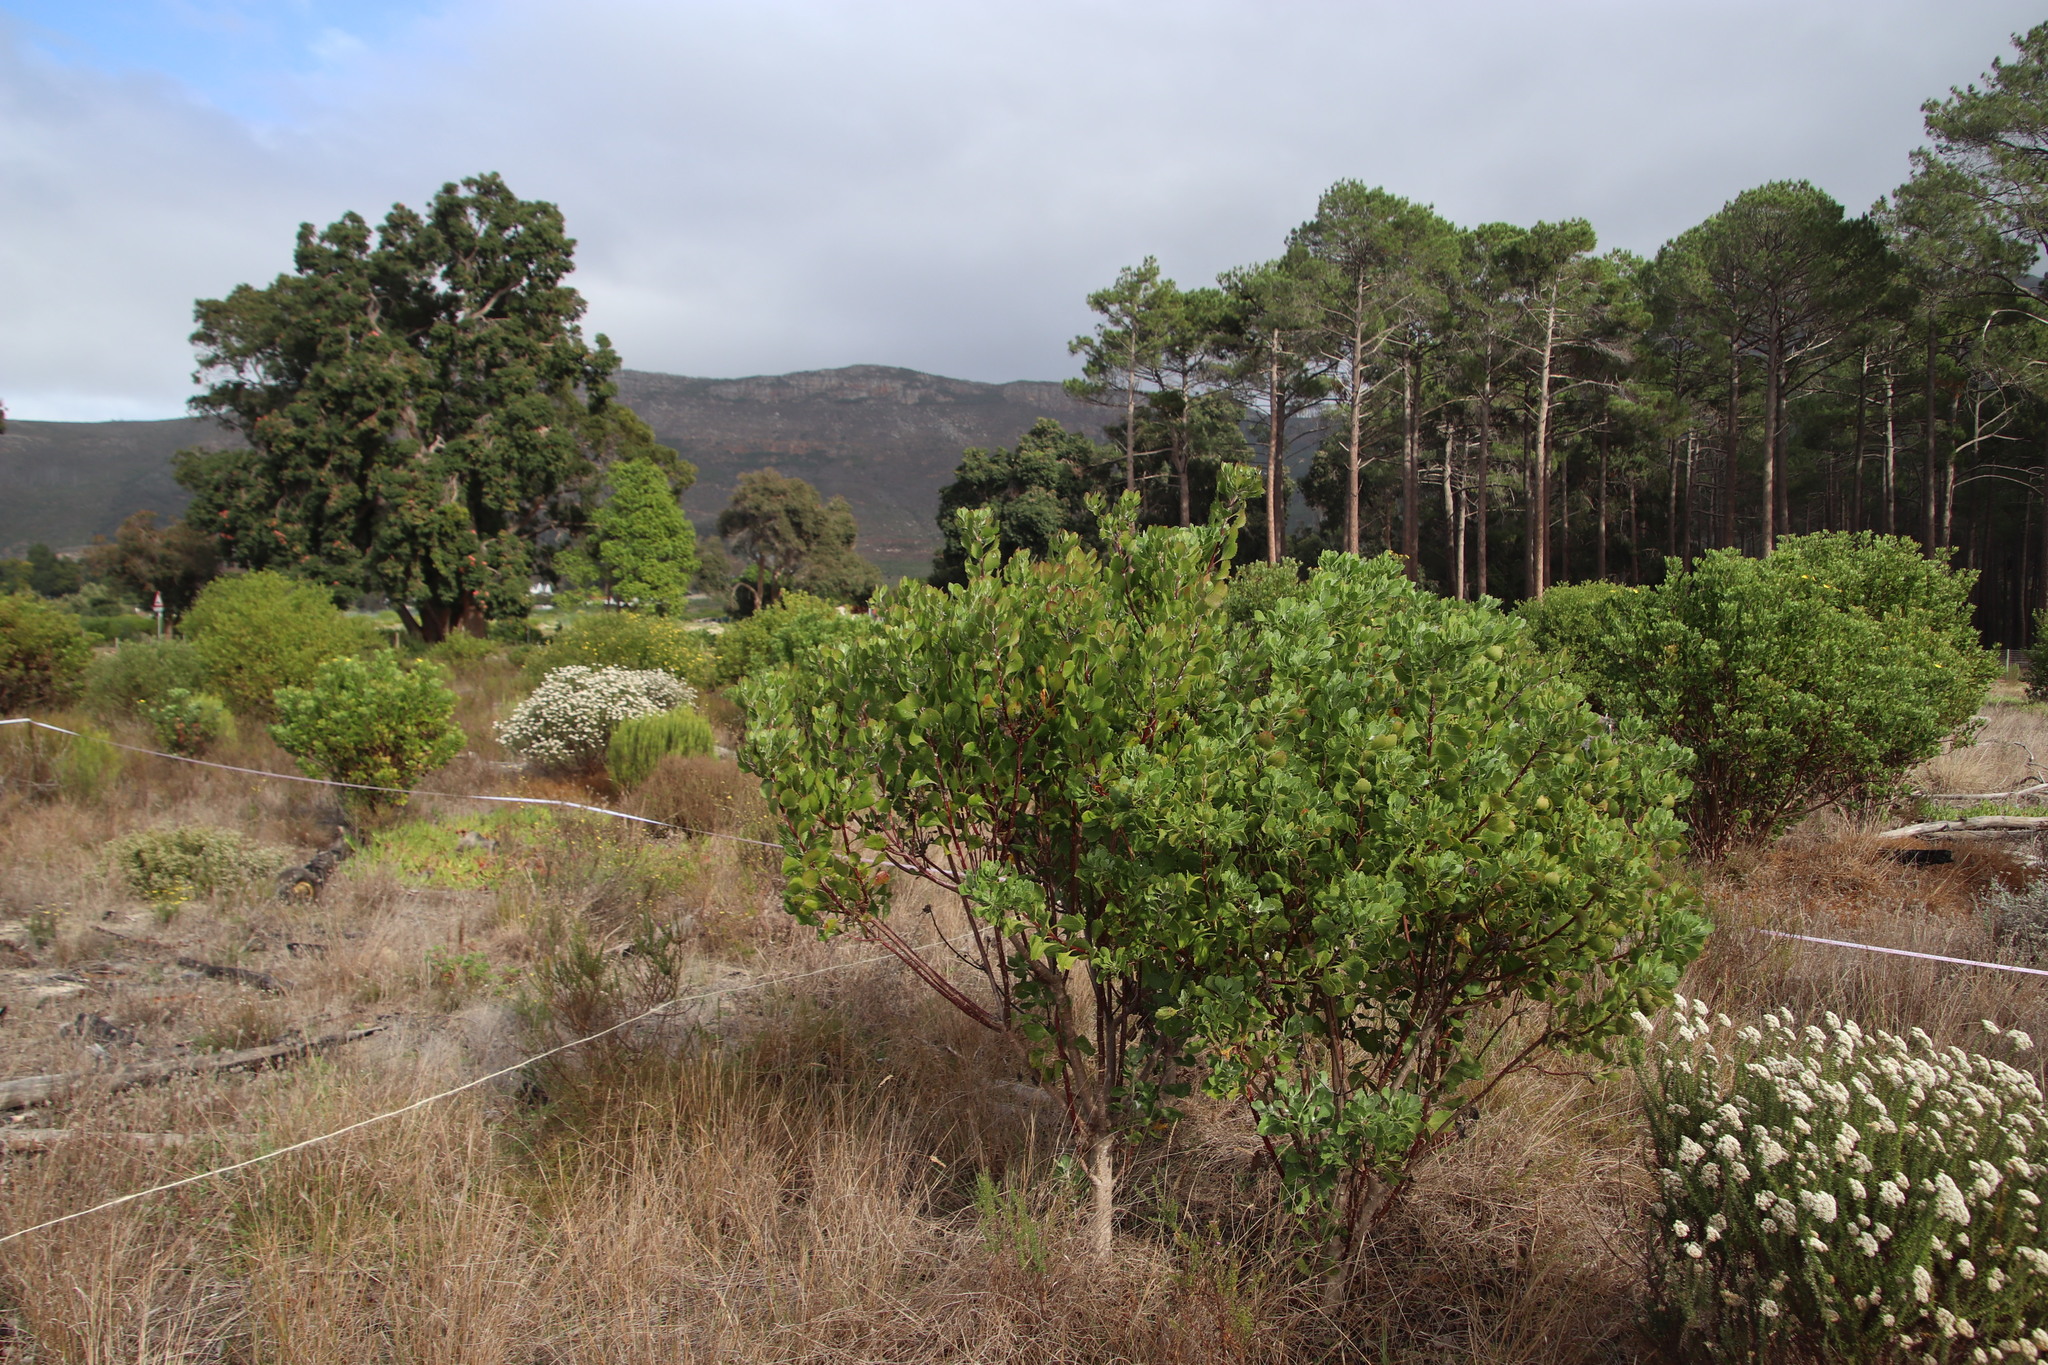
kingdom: Plantae
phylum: Tracheophyta
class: Magnoliopsida
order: Asterales
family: Asteraceae
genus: Osteospermum
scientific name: Osteospermum moniliferum
